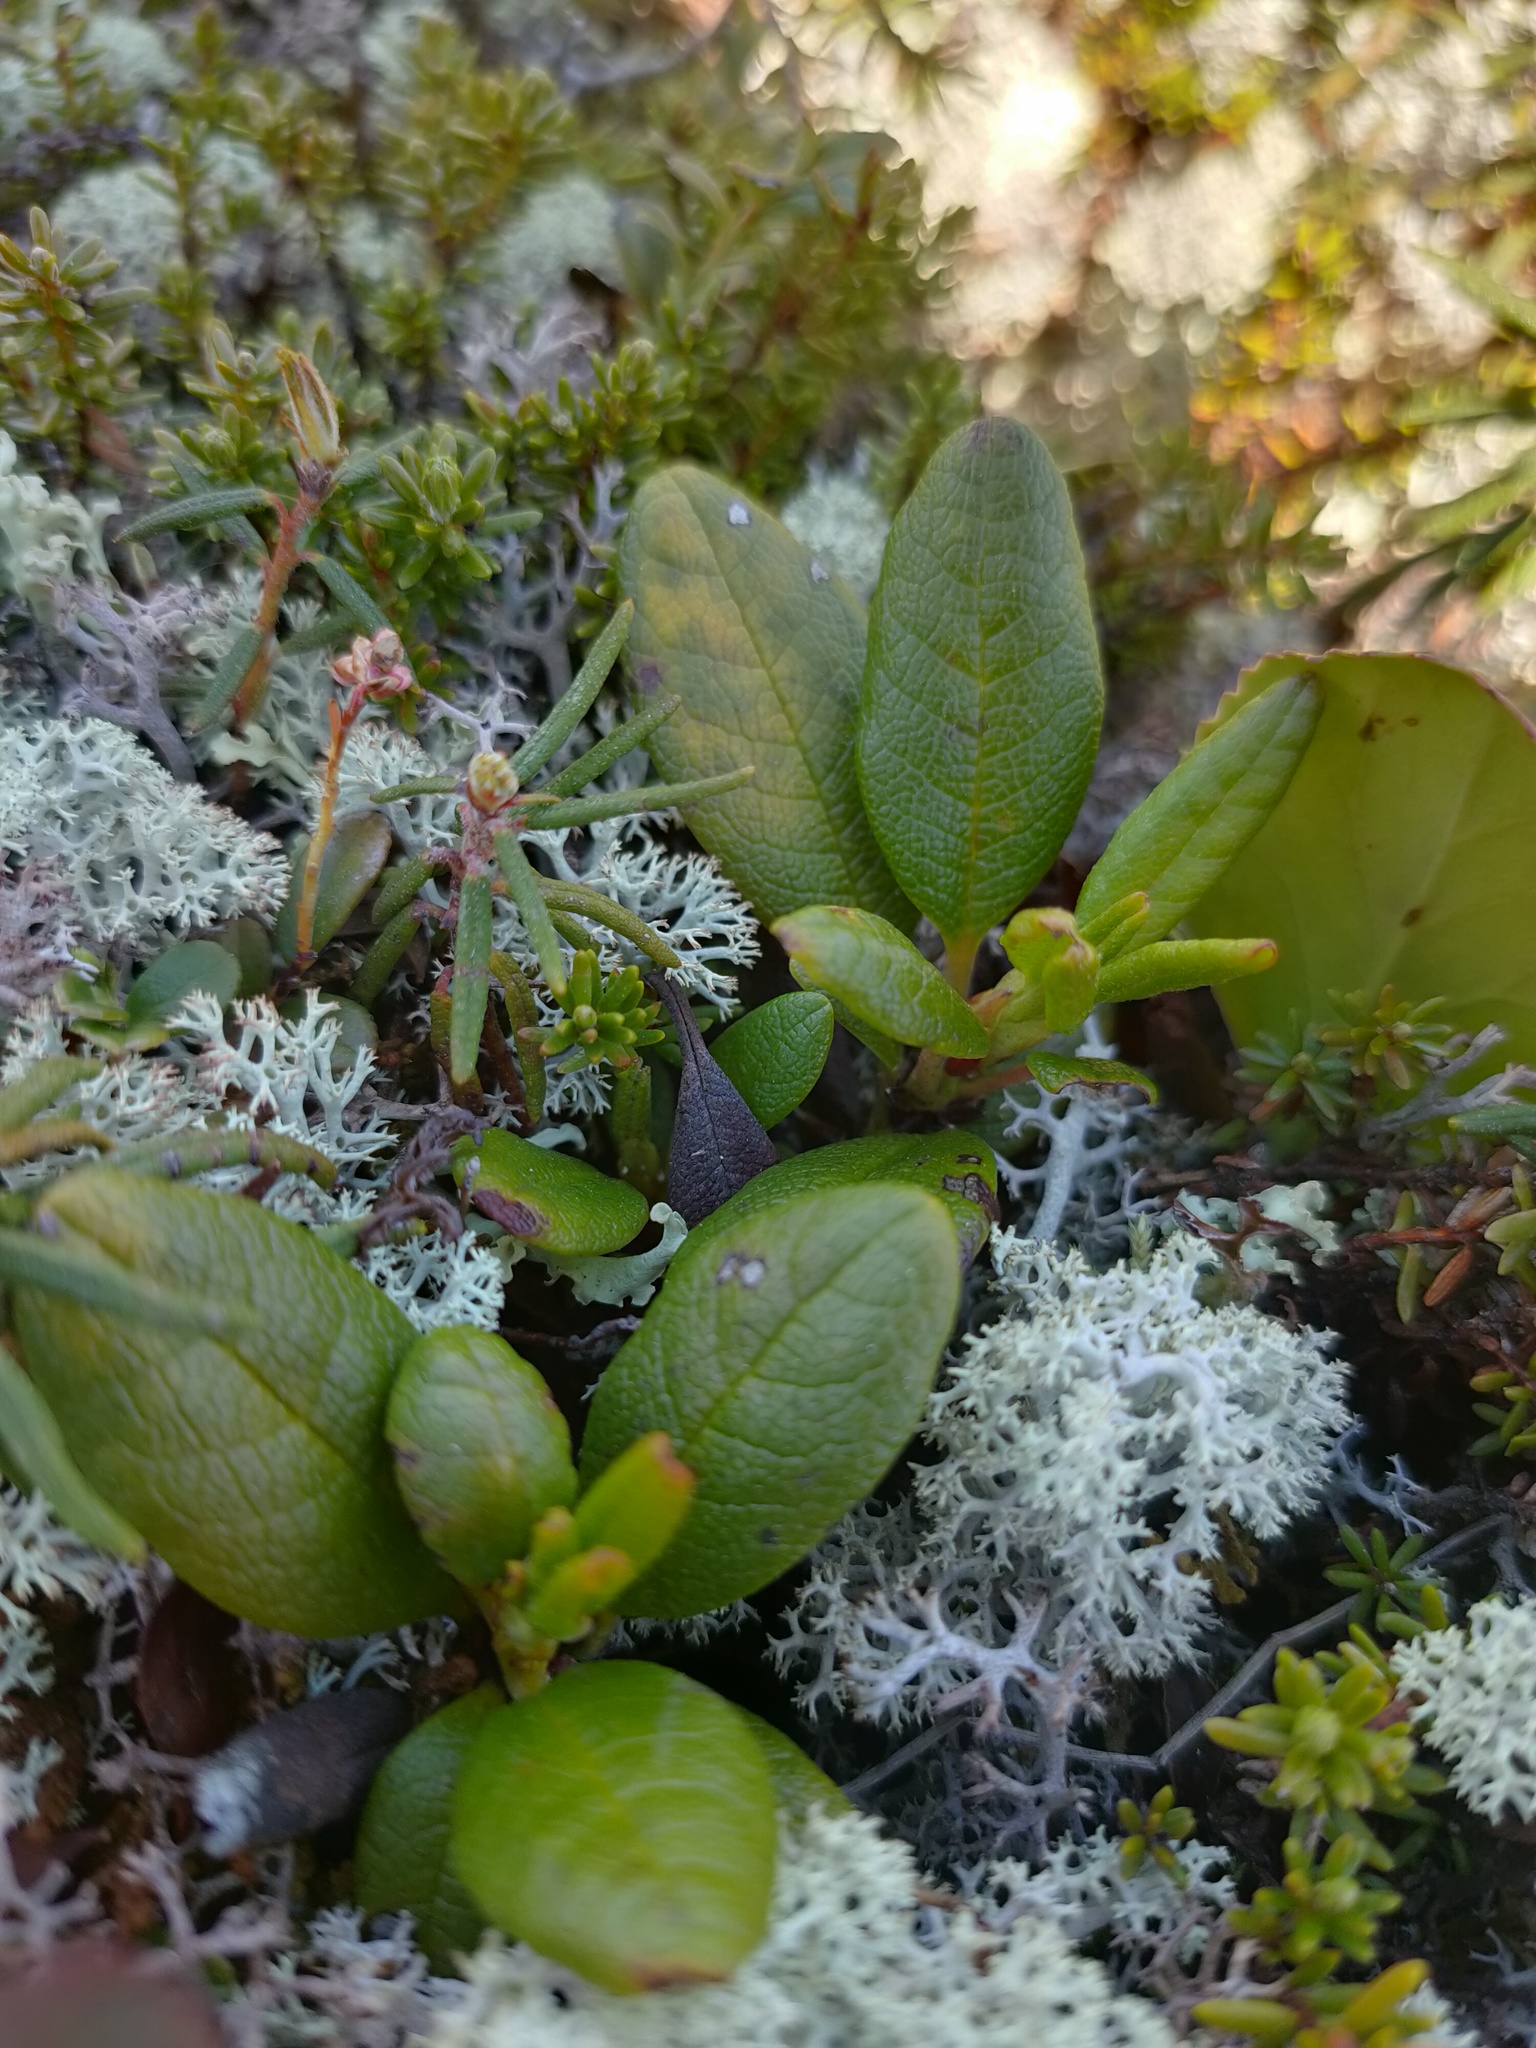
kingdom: Plantae
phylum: Tracheophyta
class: Magnoliopsida
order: Ericales
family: Ericaceae
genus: Rhododendron
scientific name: Rhododendron aureum
